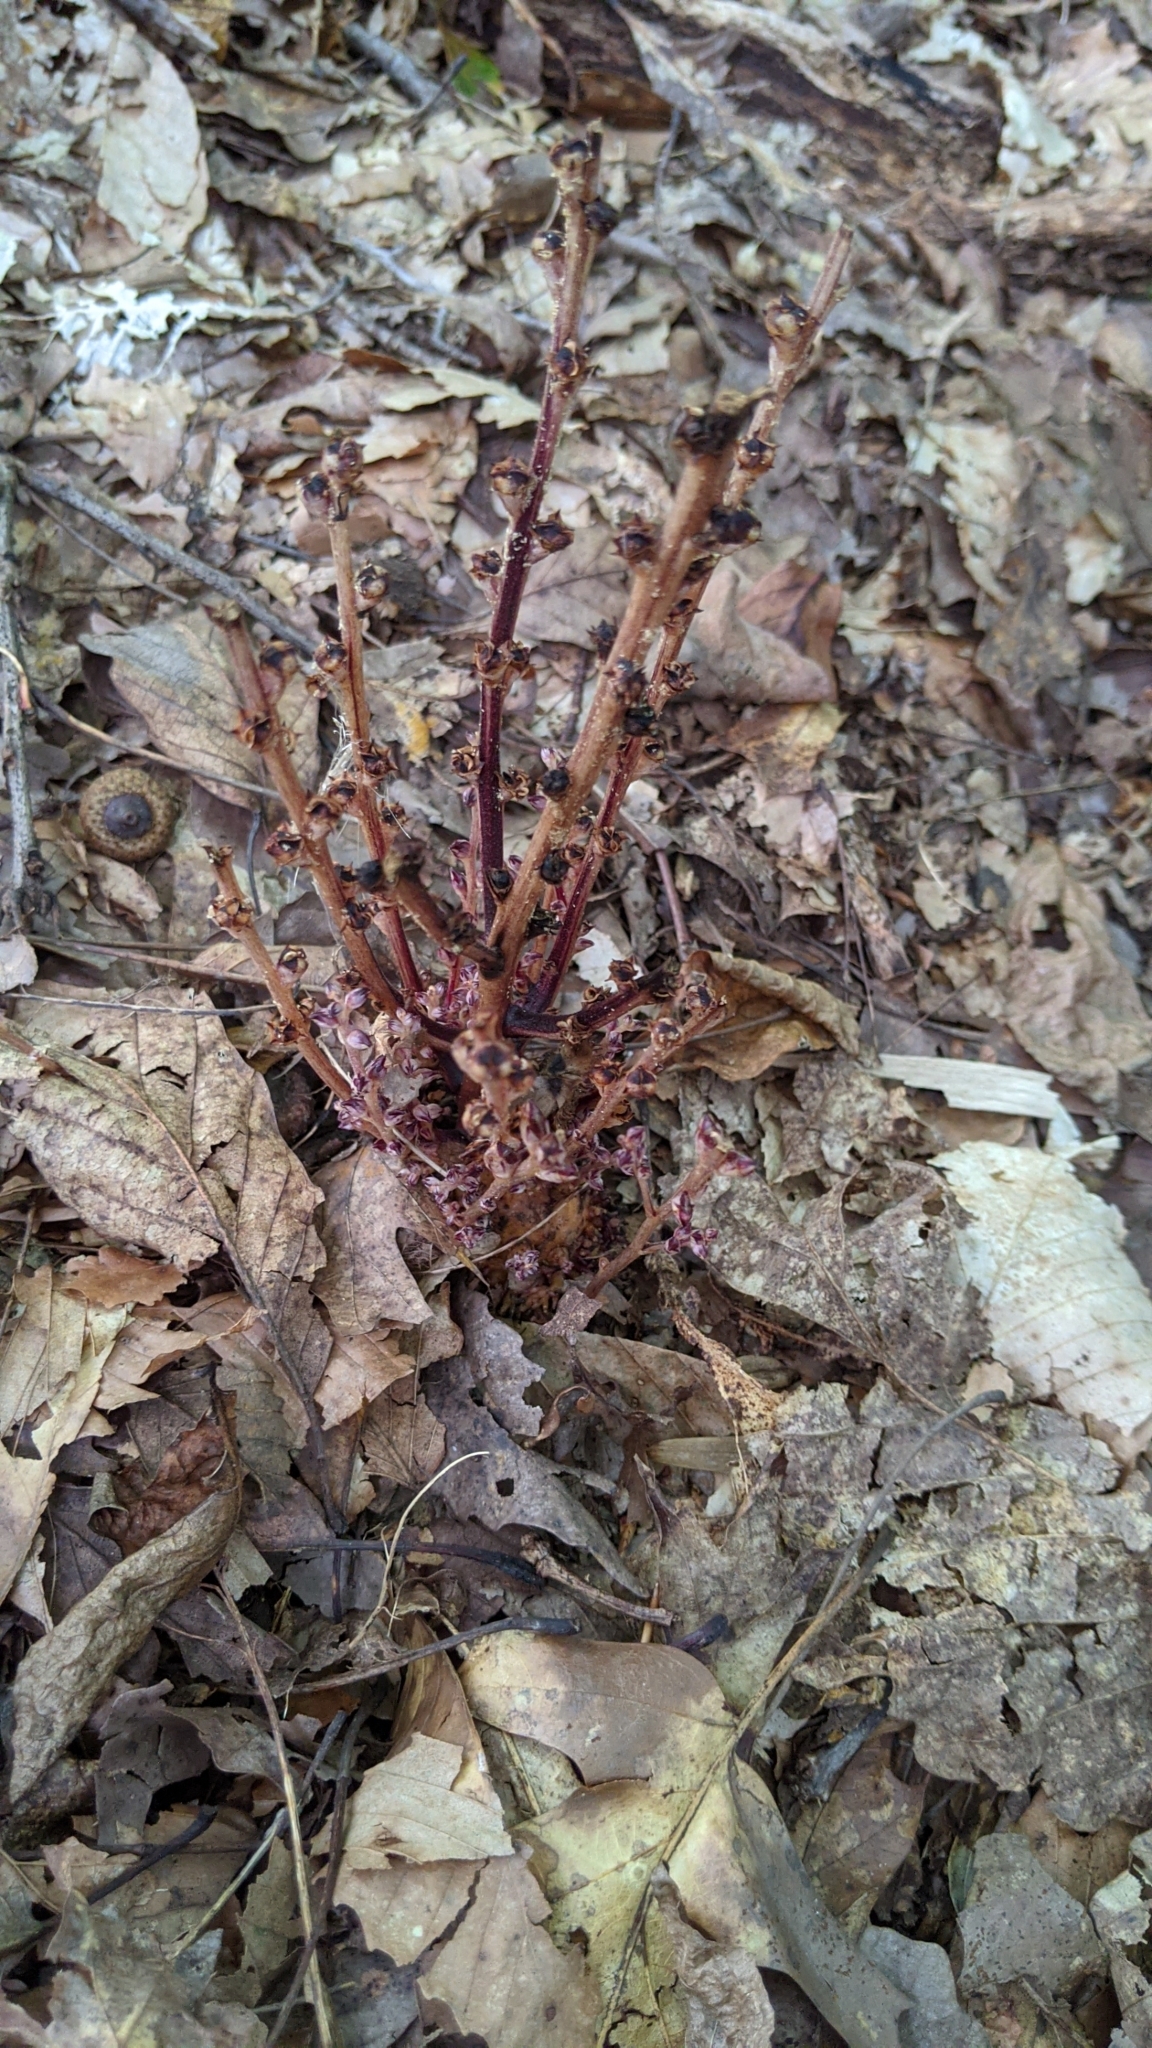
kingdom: Plantae
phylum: Tracheophyta
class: Magnoliopsida
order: Lamiales
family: Orobanchaceae
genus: Epifagus
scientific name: Epifagus virginiana
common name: Beechdrops
